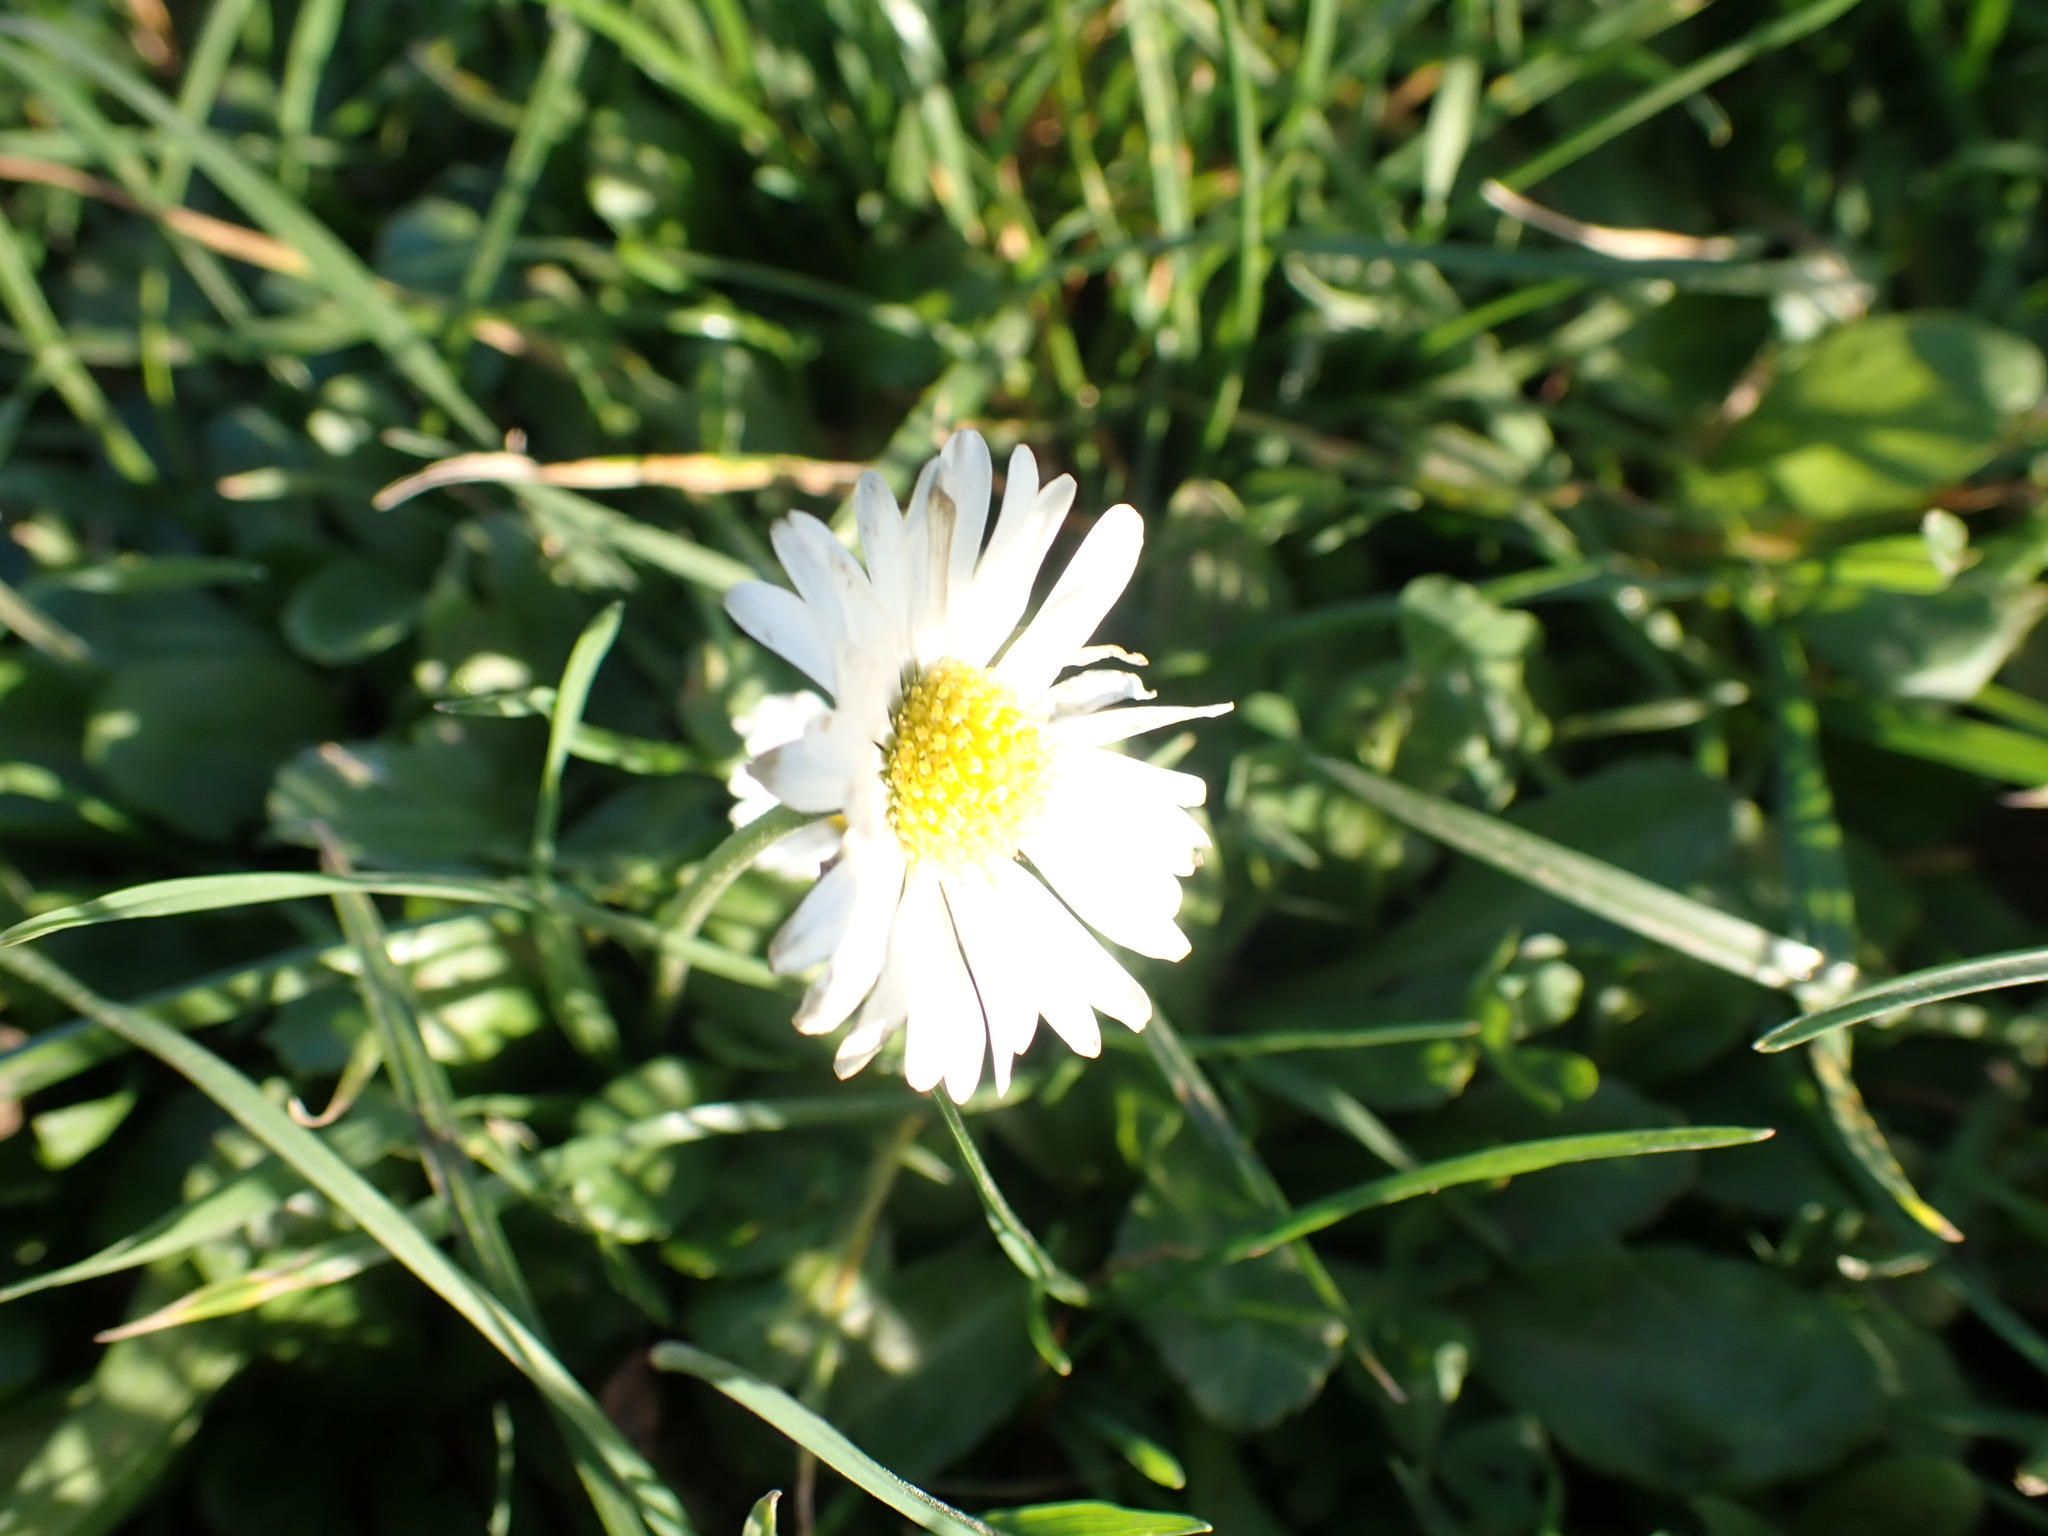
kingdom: Plantae
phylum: Tracheophyta
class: Magnoliopsida
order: Asterales
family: Asteraceae
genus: Bellis
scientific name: Bellis perennis
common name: Lawndaisy
